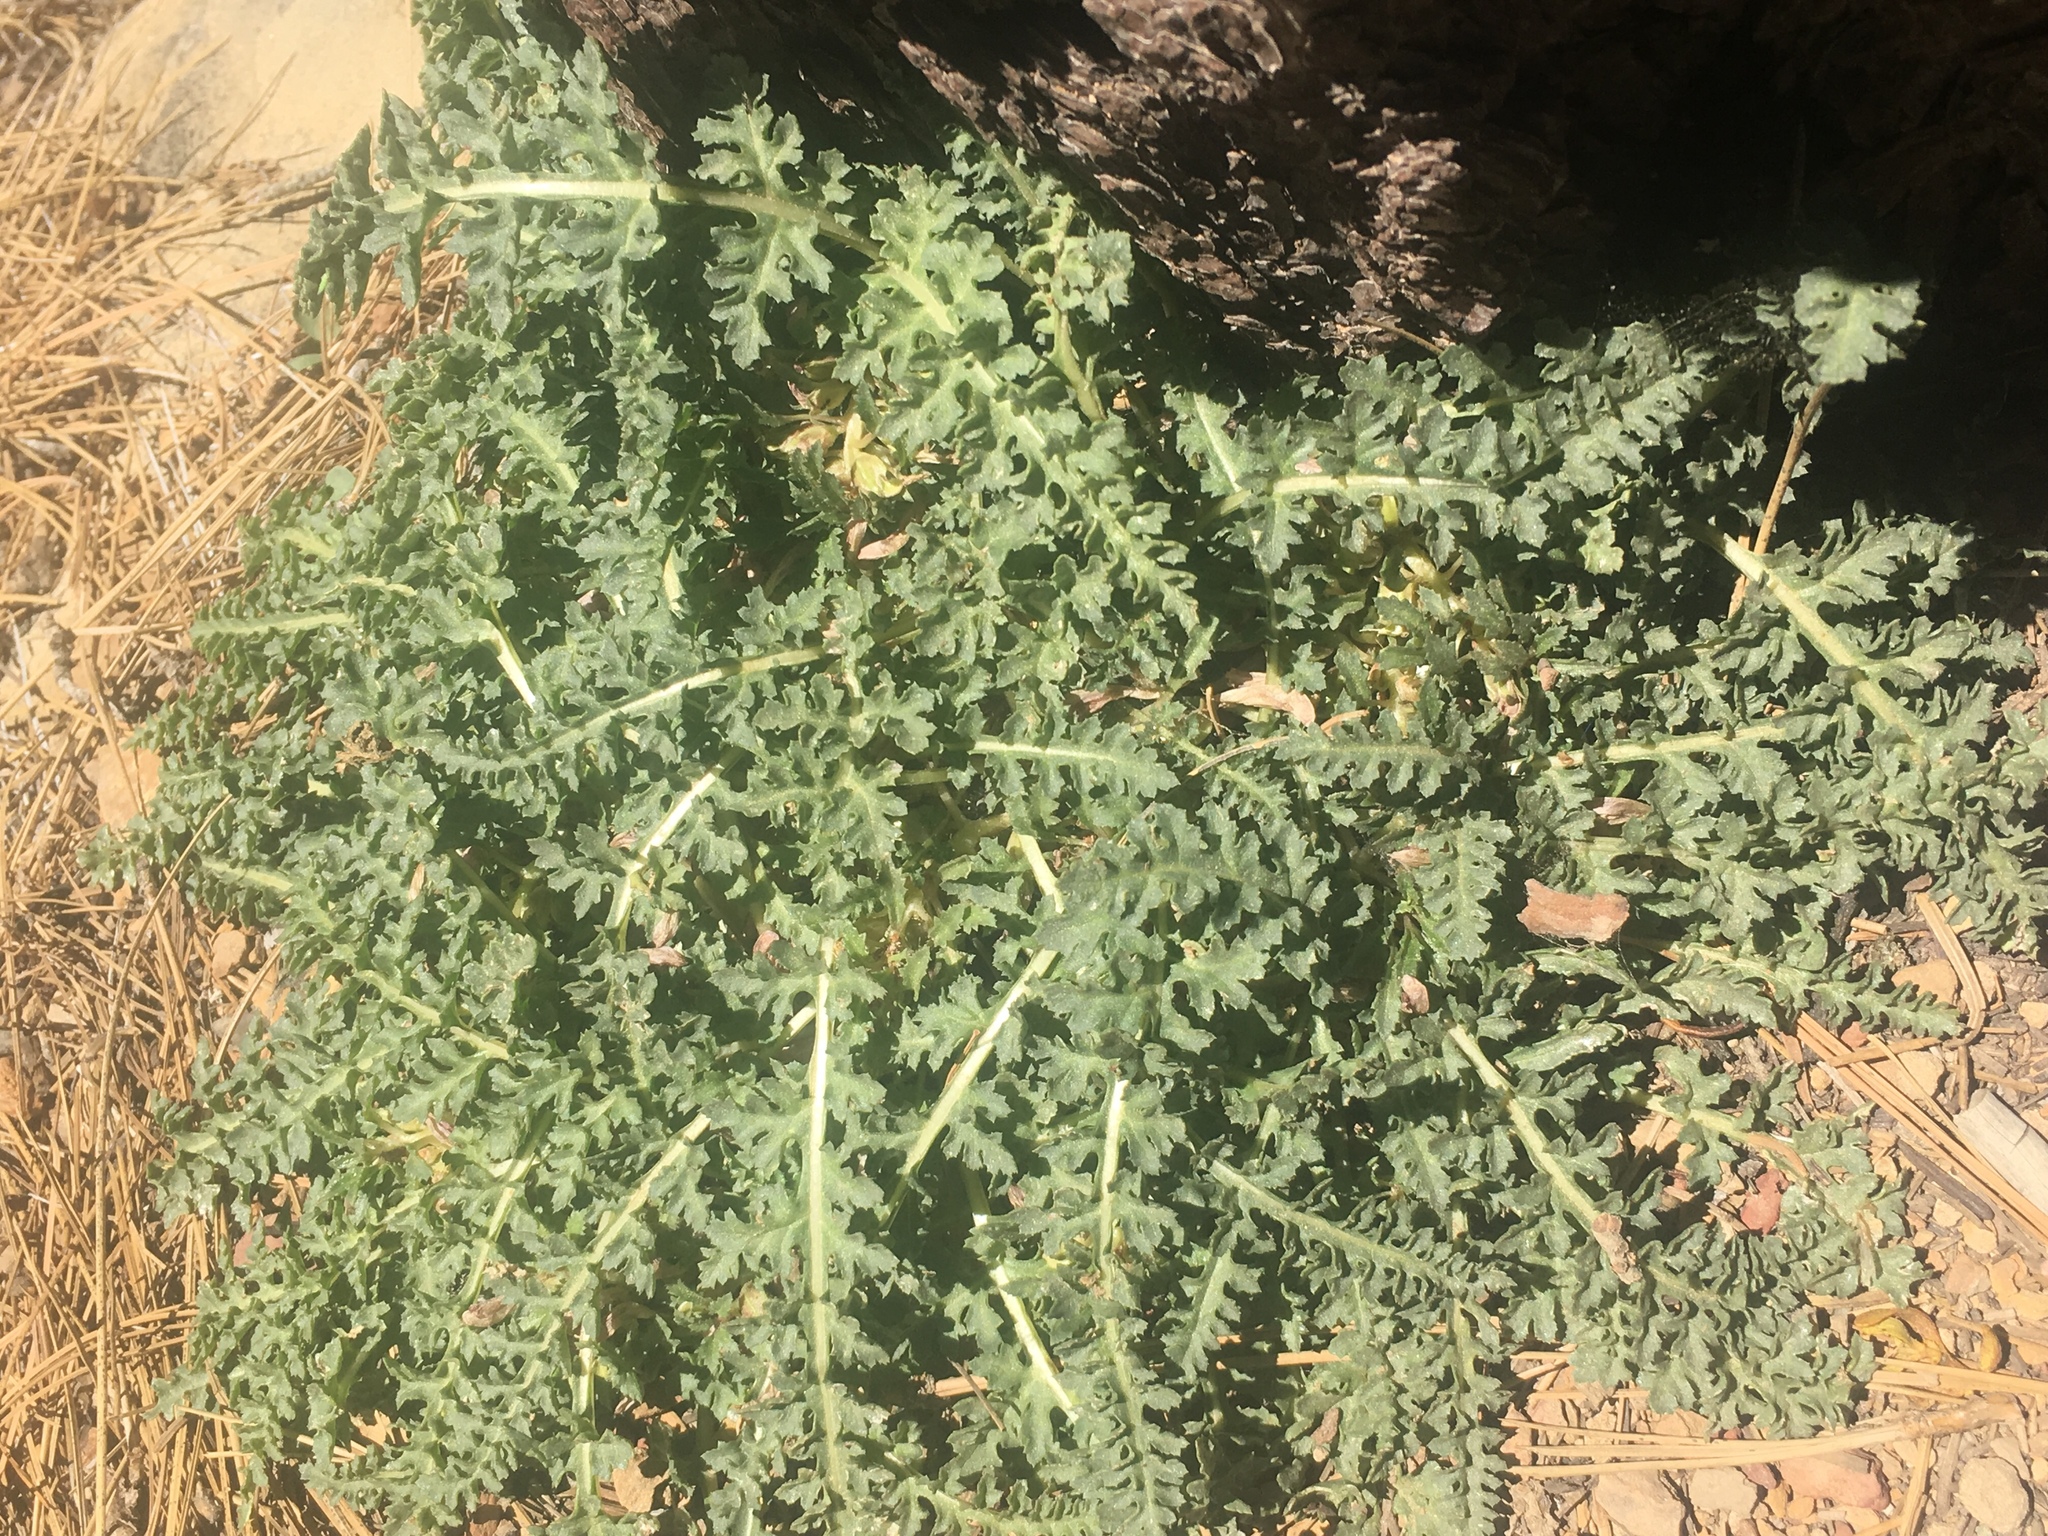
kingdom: Plantae
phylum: Tracheophyta
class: Magnoliopsida
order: Lamiales
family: Orobanchaceae
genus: Pedicularis
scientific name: Pedicularis semibarbata
